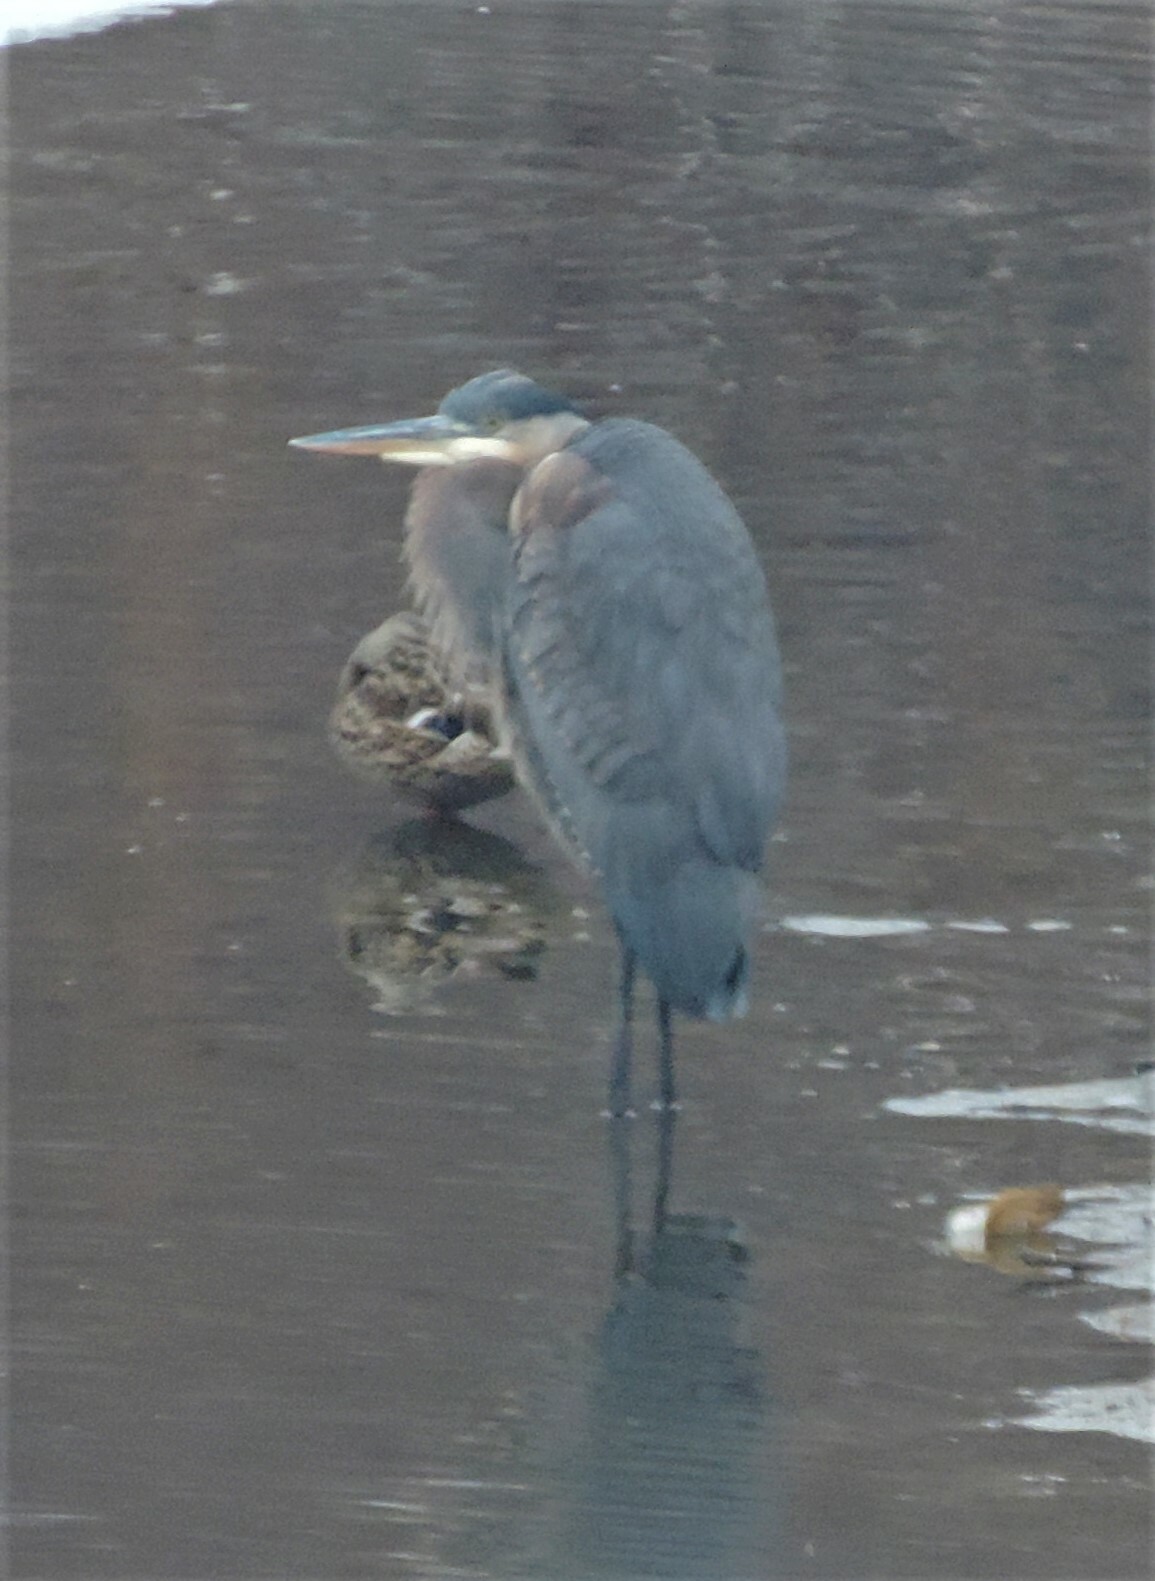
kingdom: Animalia
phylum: Chordata
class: Aves
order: Pelecaniformes
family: Ardeidae
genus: Ardea
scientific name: Ardea herodias
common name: Great blue heron
